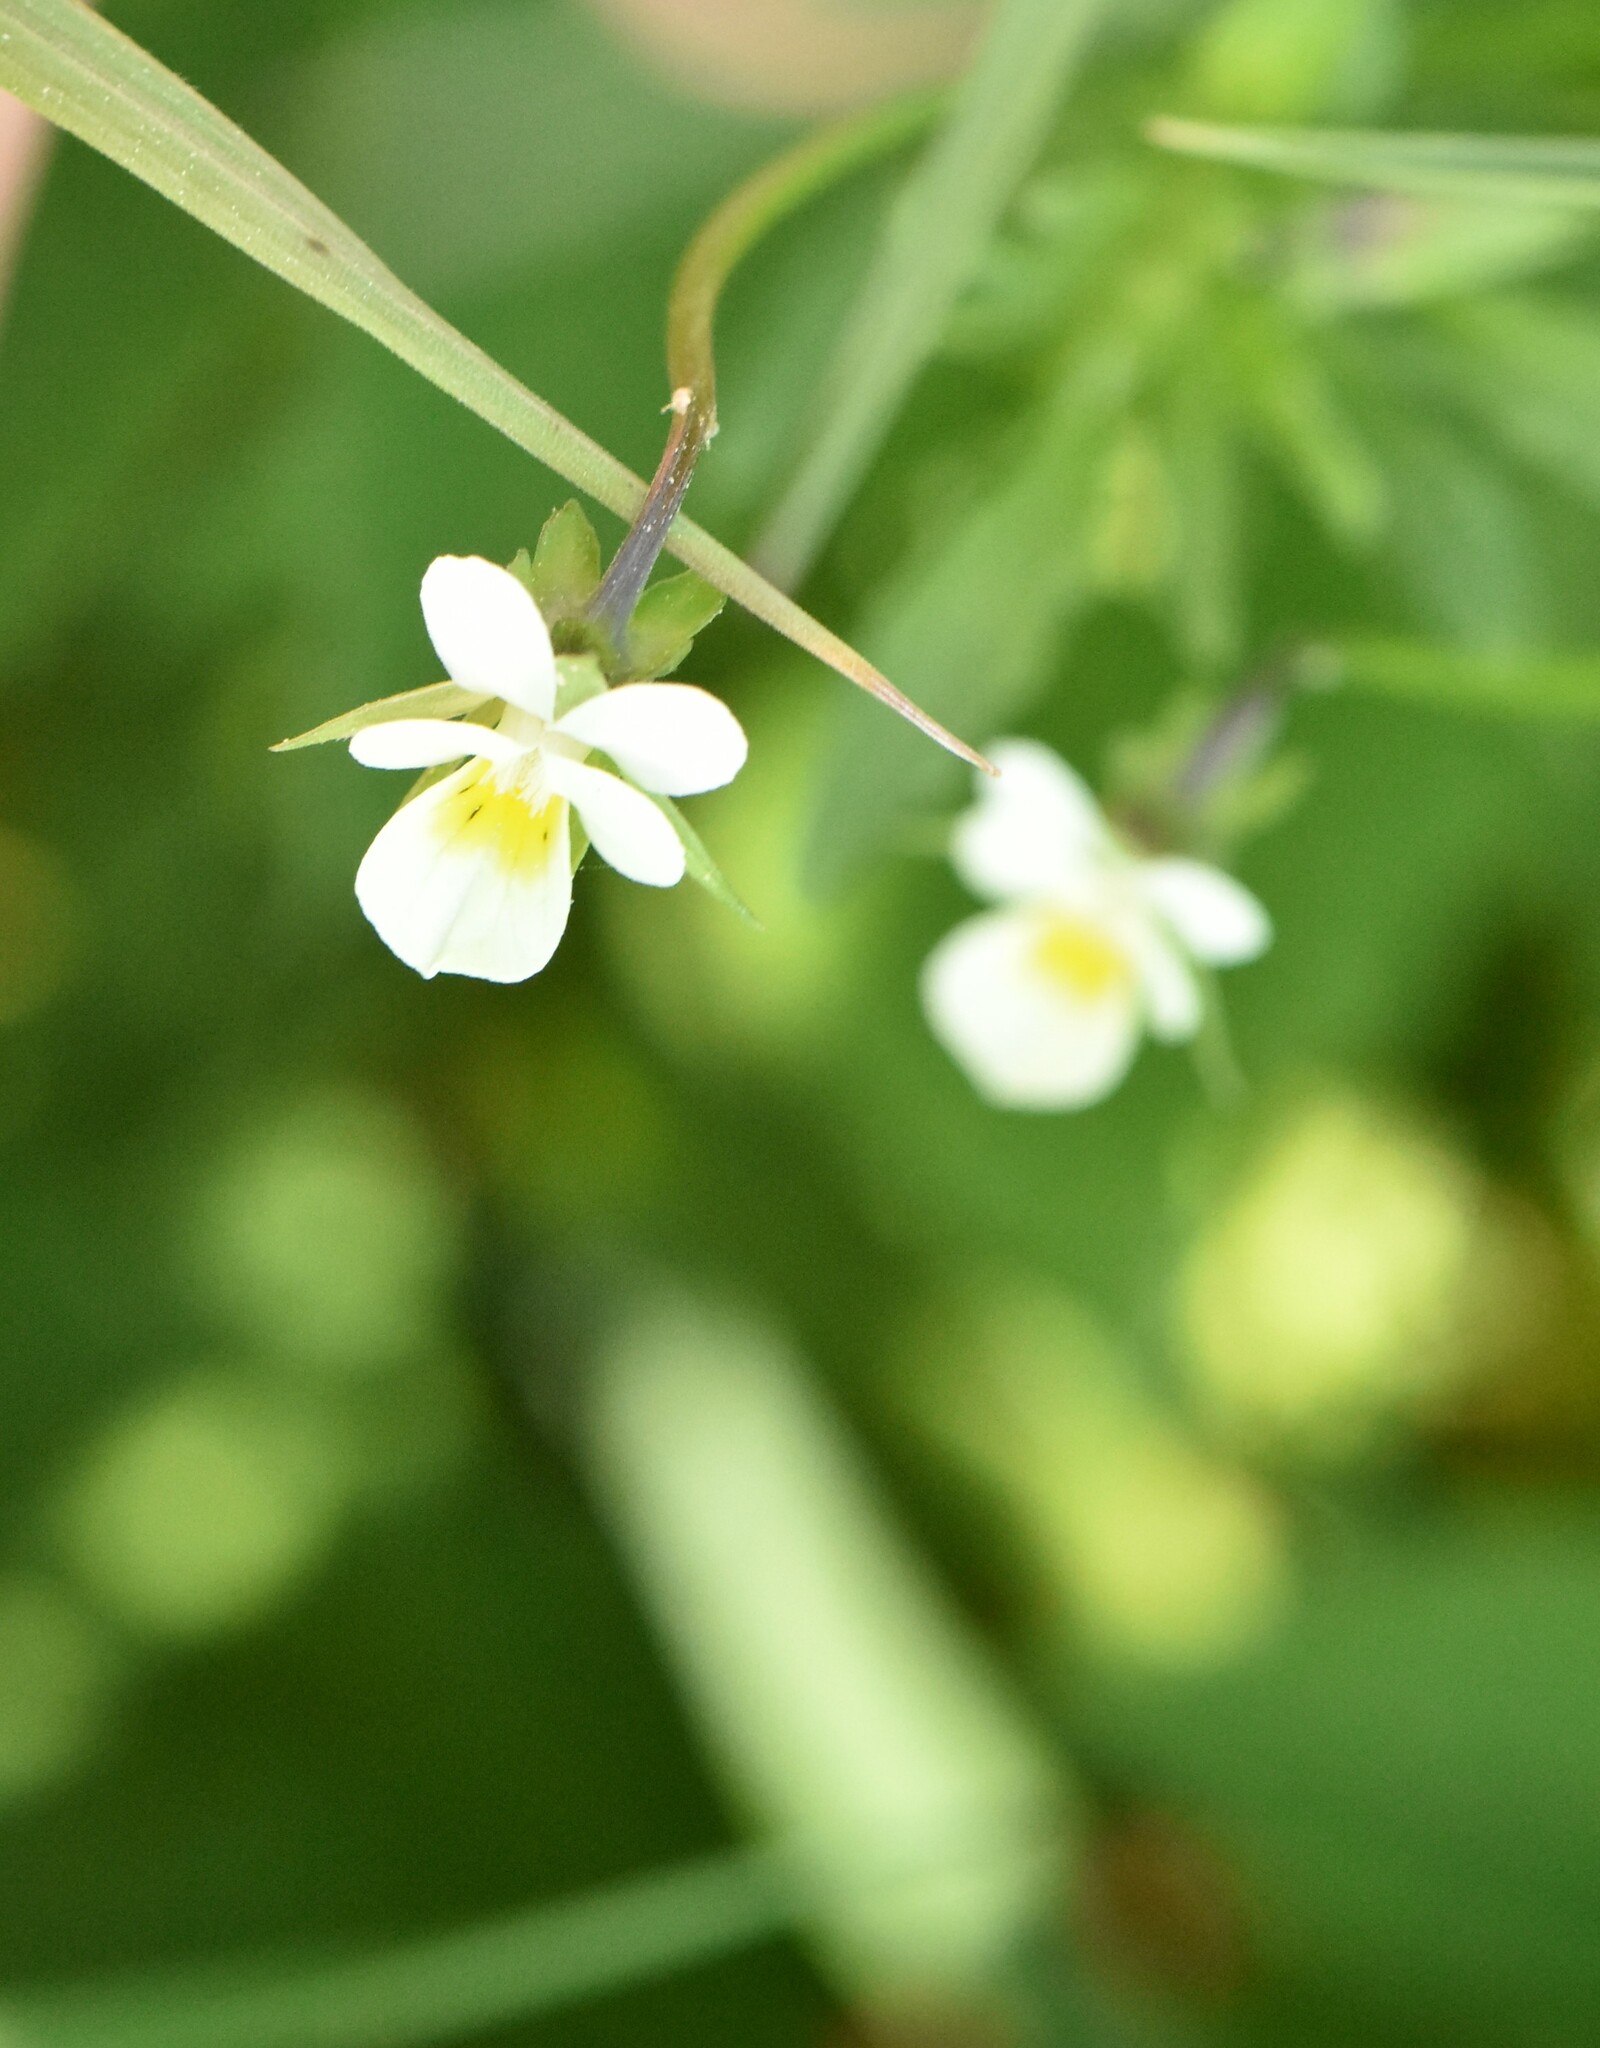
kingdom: Plantae
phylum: Tracheophyta
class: Magnoliopsida
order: Malpighiales
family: Violaceae
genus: Viola
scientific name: Viola arvensis
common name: Field pansy
